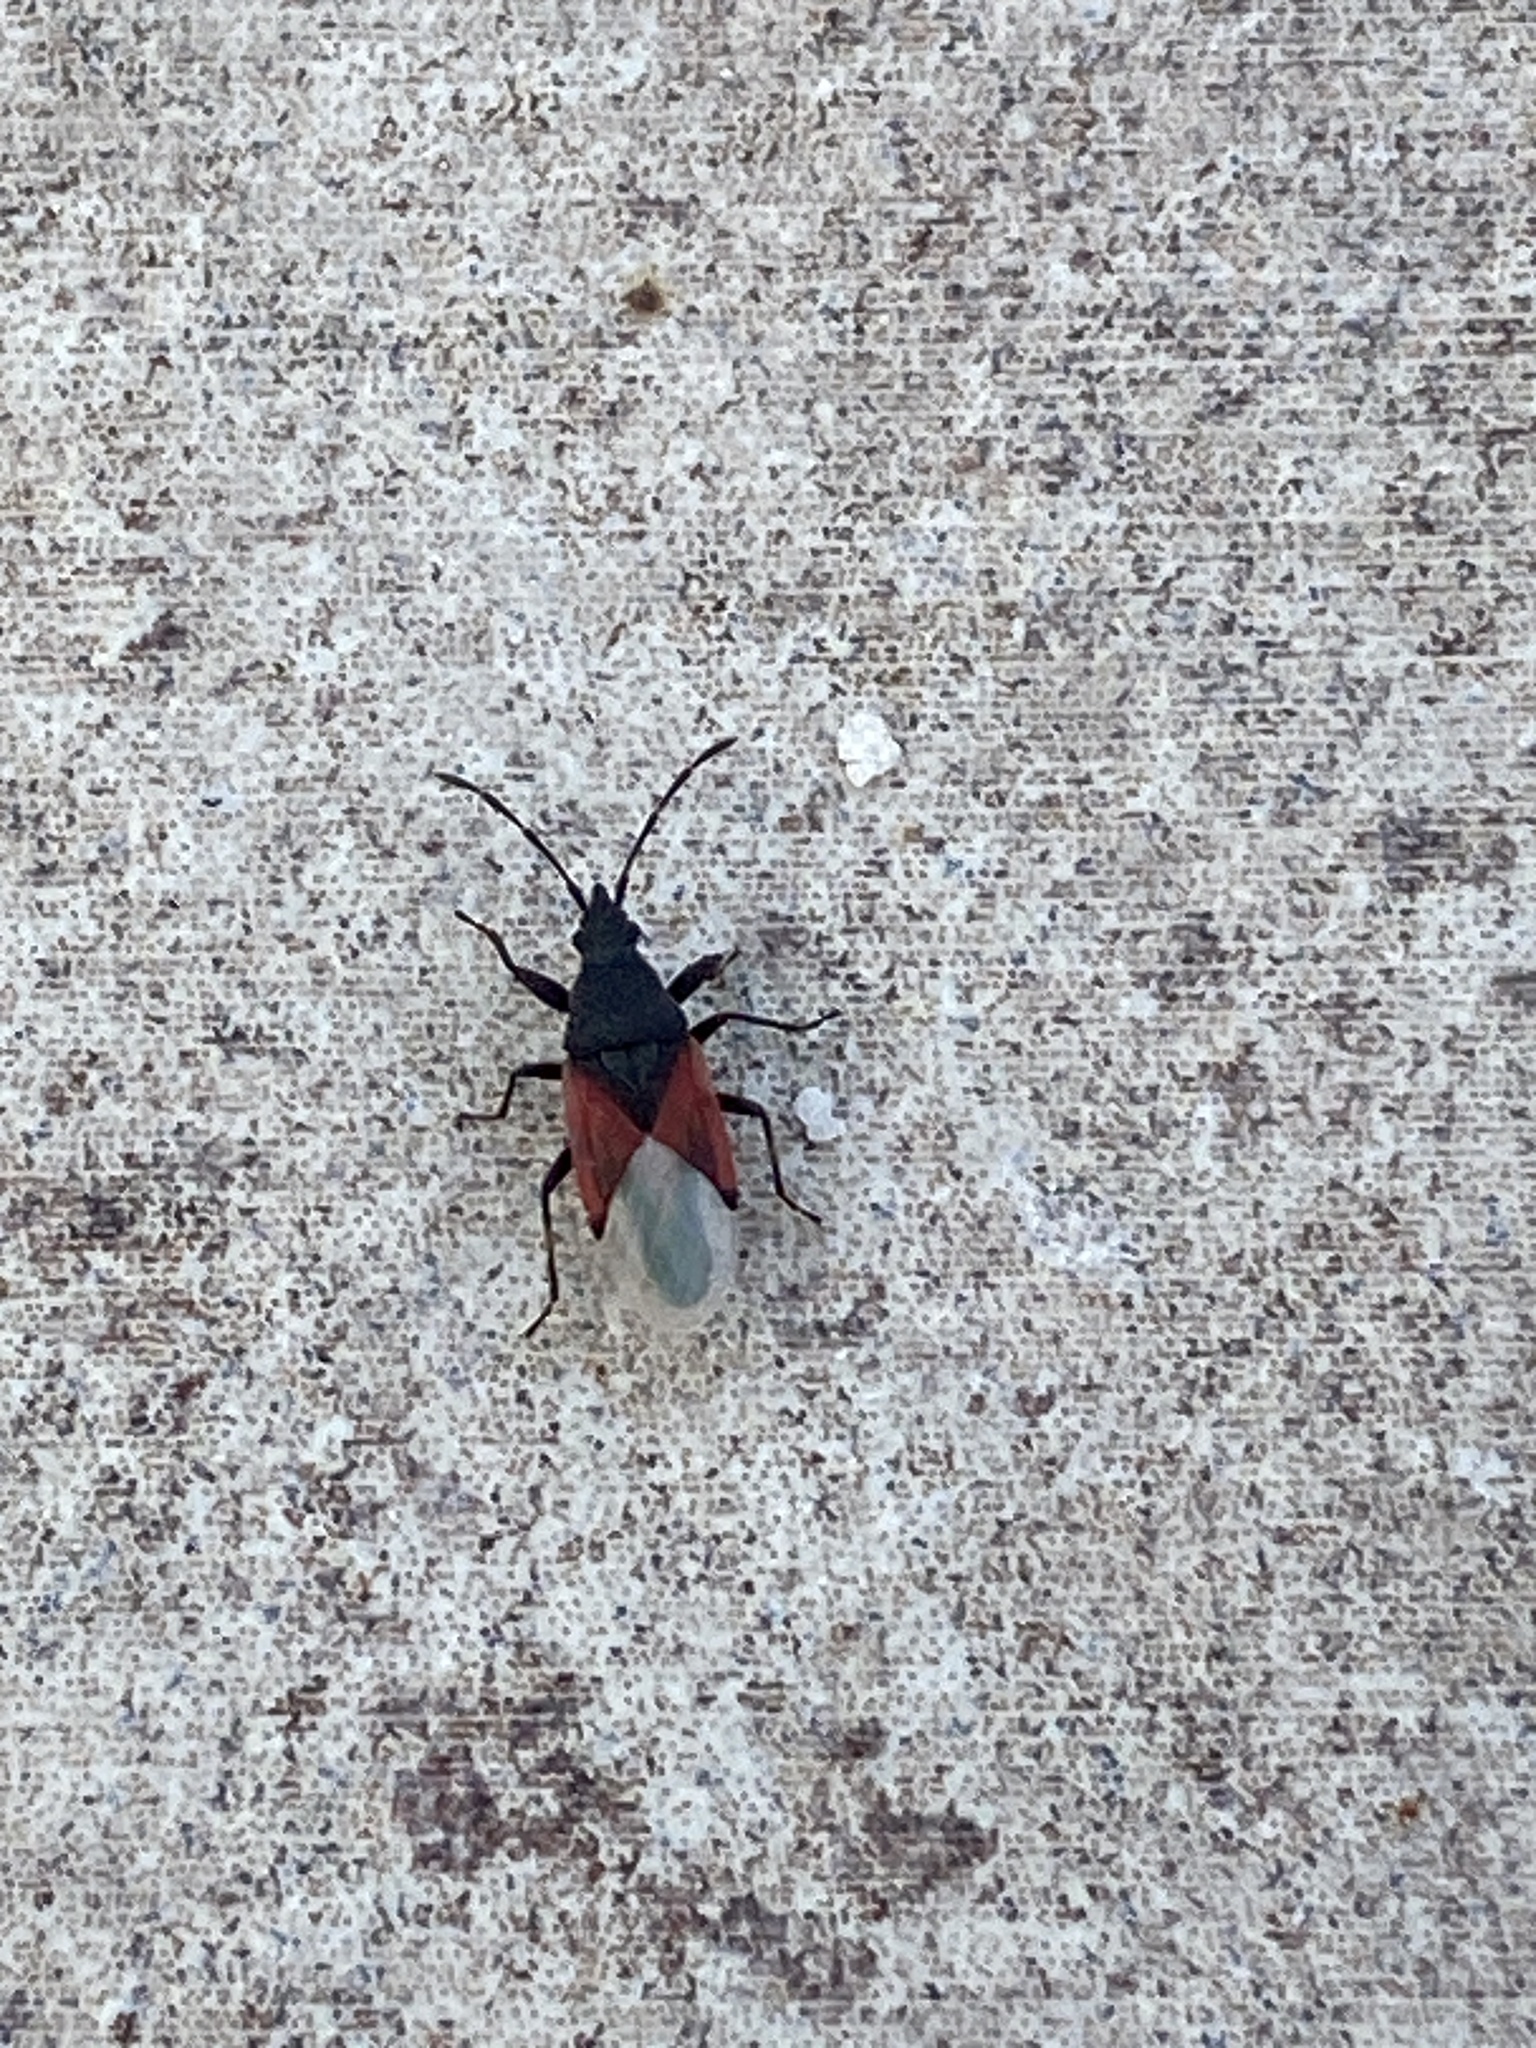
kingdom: Animalia
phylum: Arthropoda
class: Insecta
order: Hemiptera
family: Oxycarenidae
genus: Oxycarenus
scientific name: Oxycarenus lavaterae
